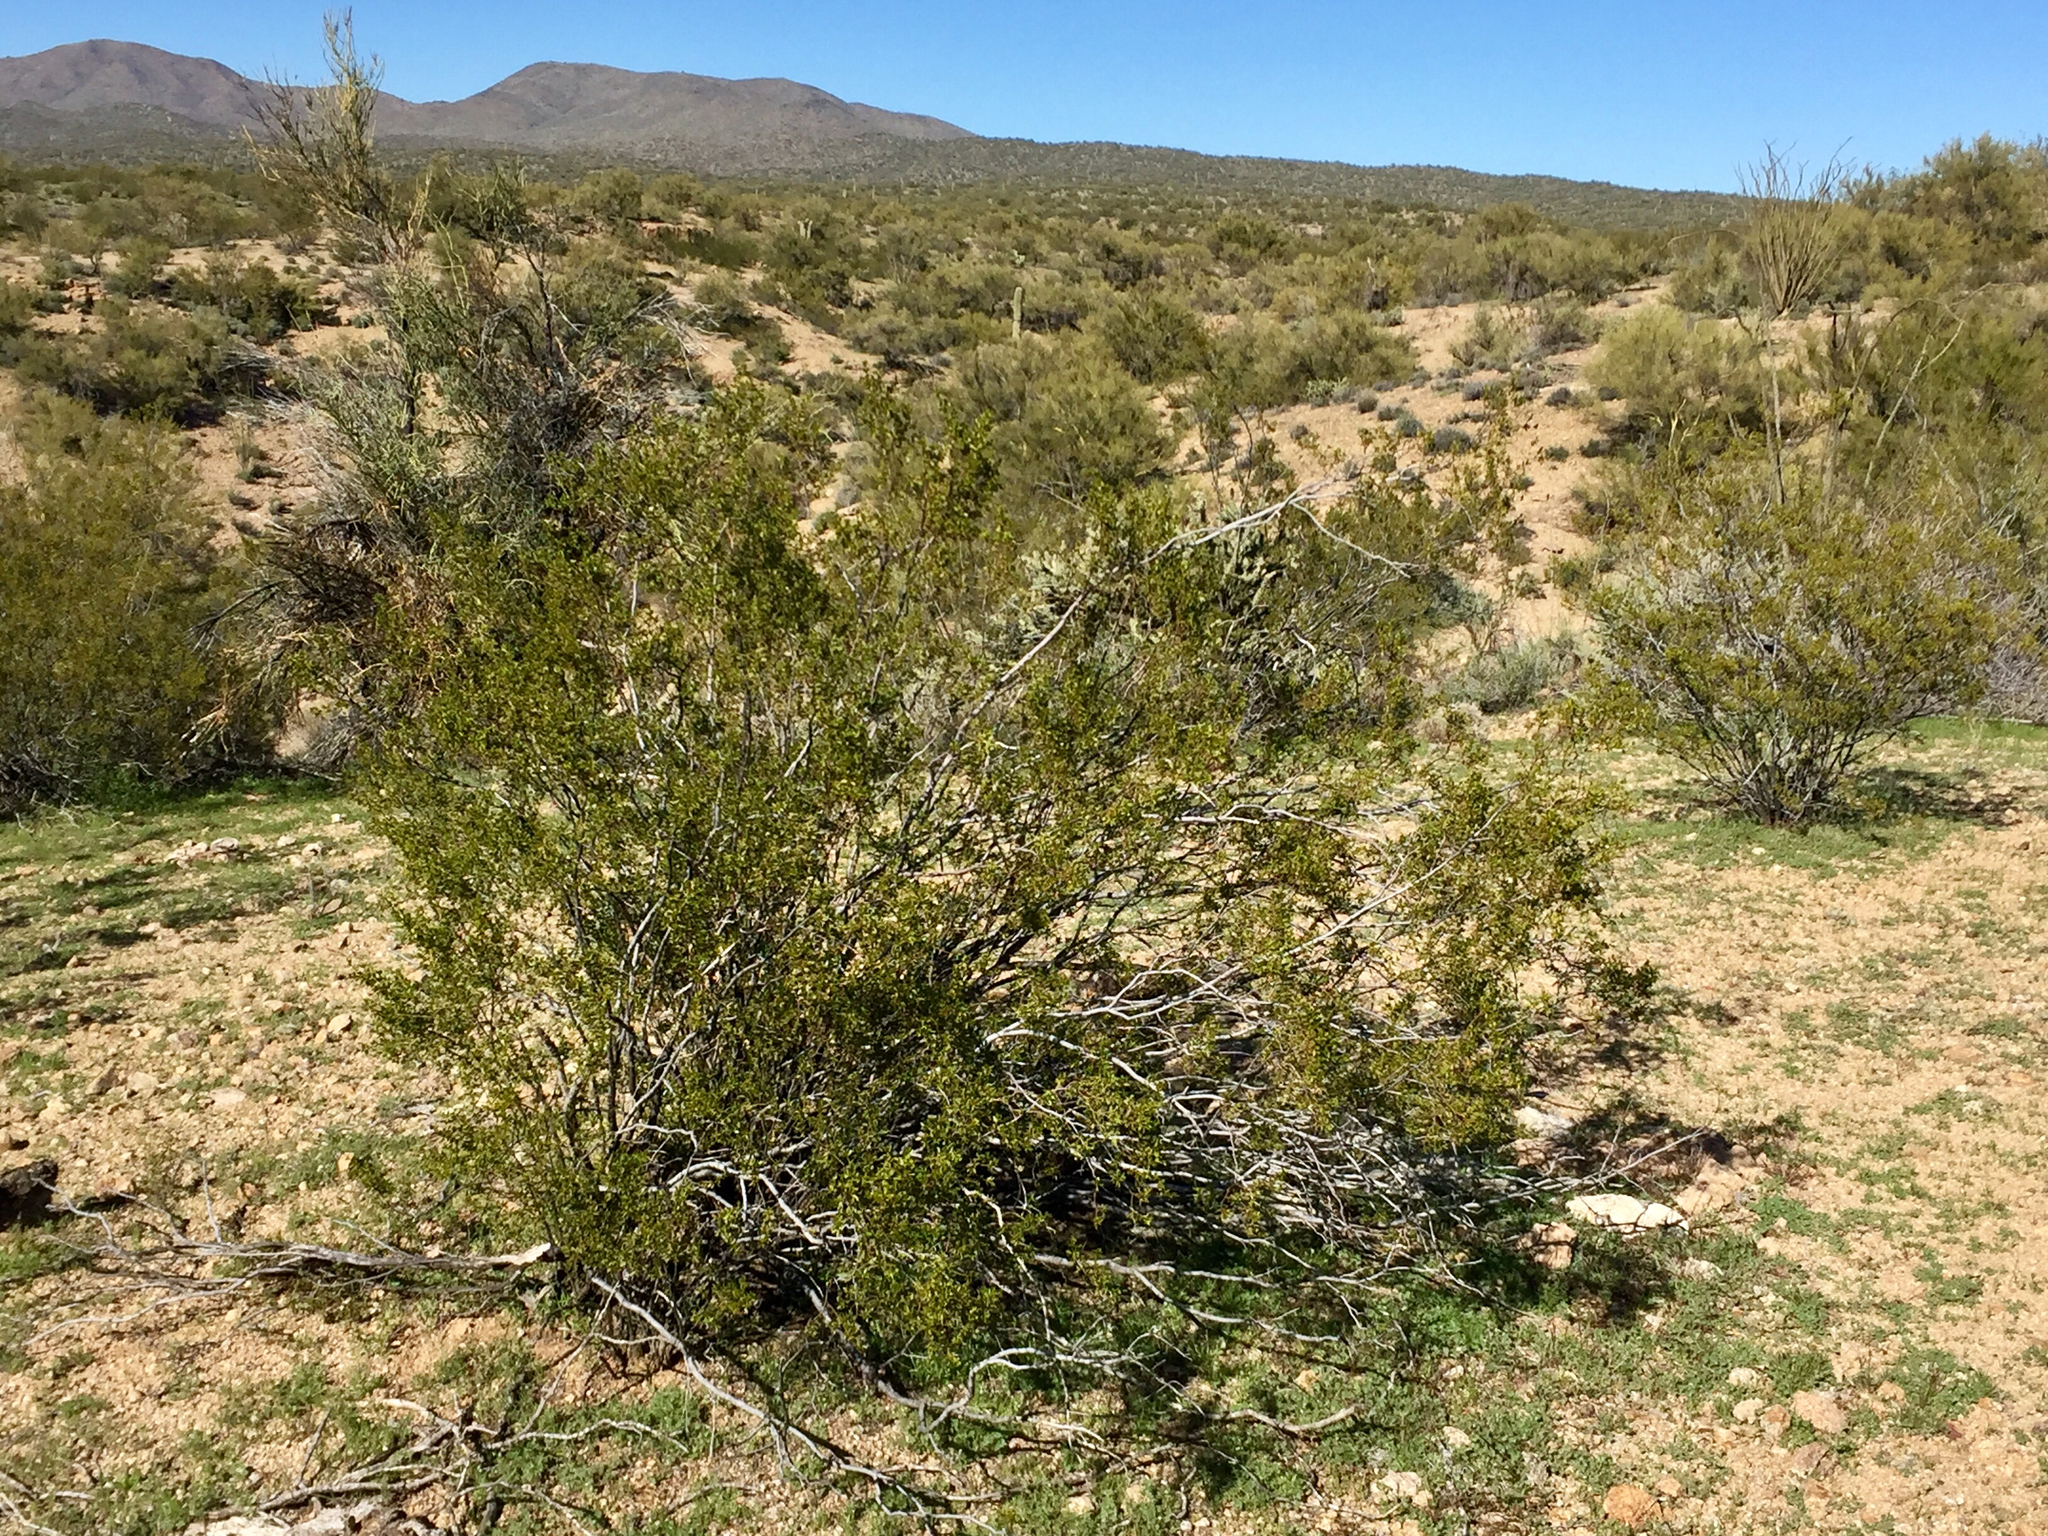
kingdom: Plantae
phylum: Tracheophyta
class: Magnoliopsida
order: Zygophyllales
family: Zygophyllaceae
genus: Larrea
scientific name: Larrea tridentata
